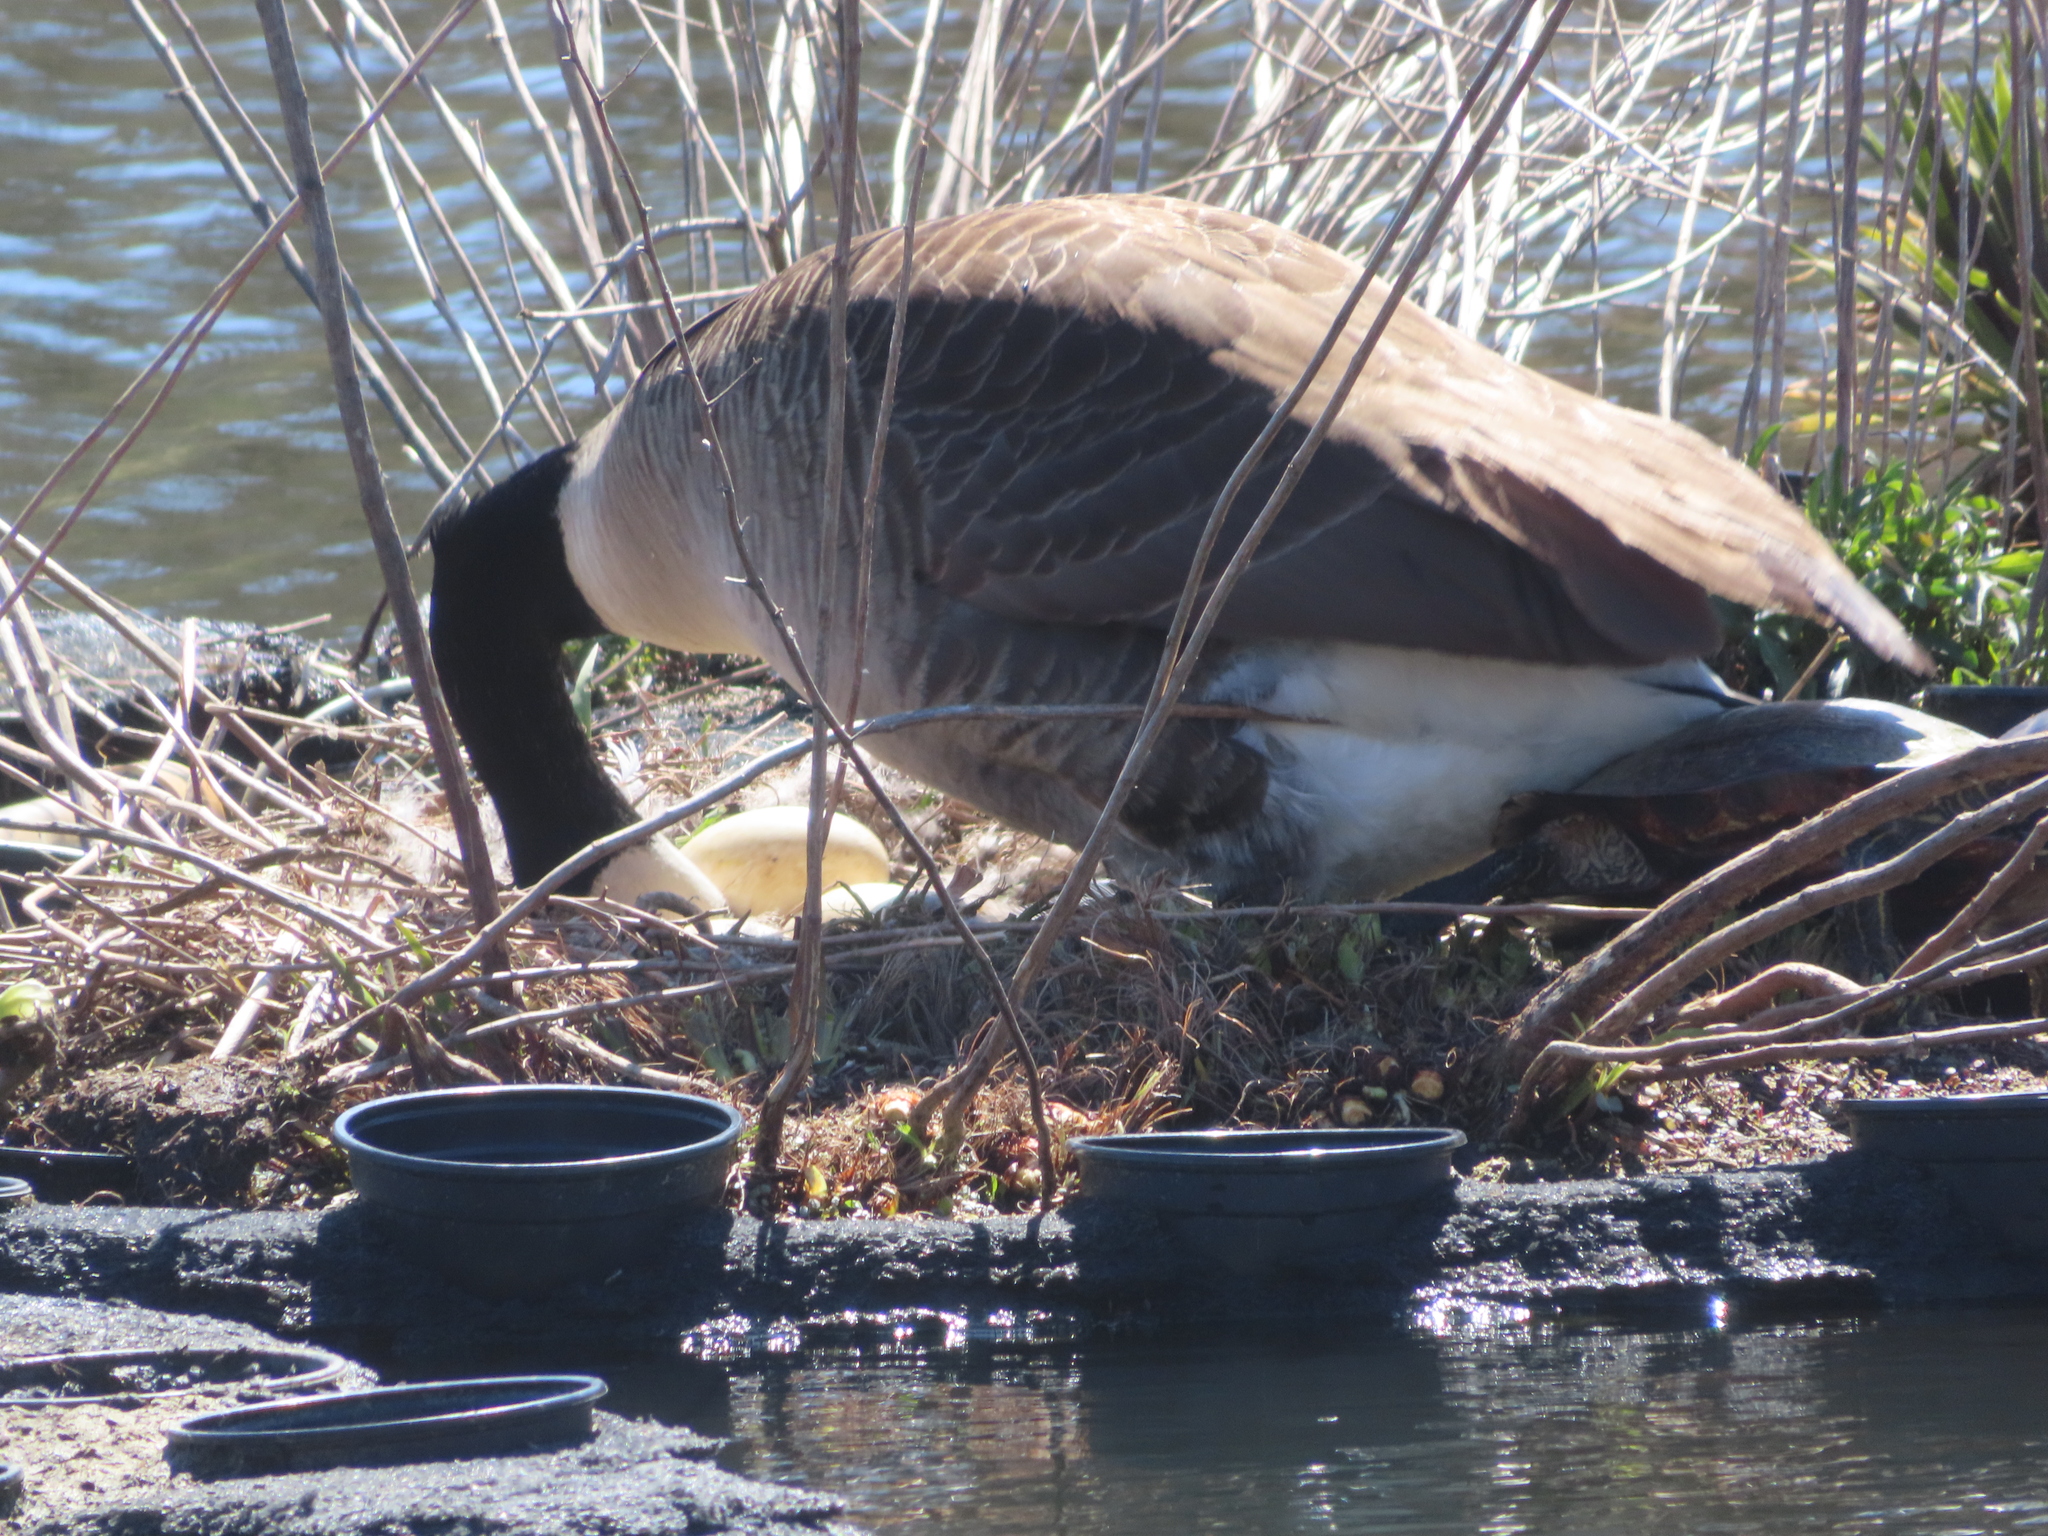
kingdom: Animalia
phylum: Chordata
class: Aves
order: Anseriformes
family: Anatidae
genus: Branta
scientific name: Branta canadensis
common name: Canada goose
